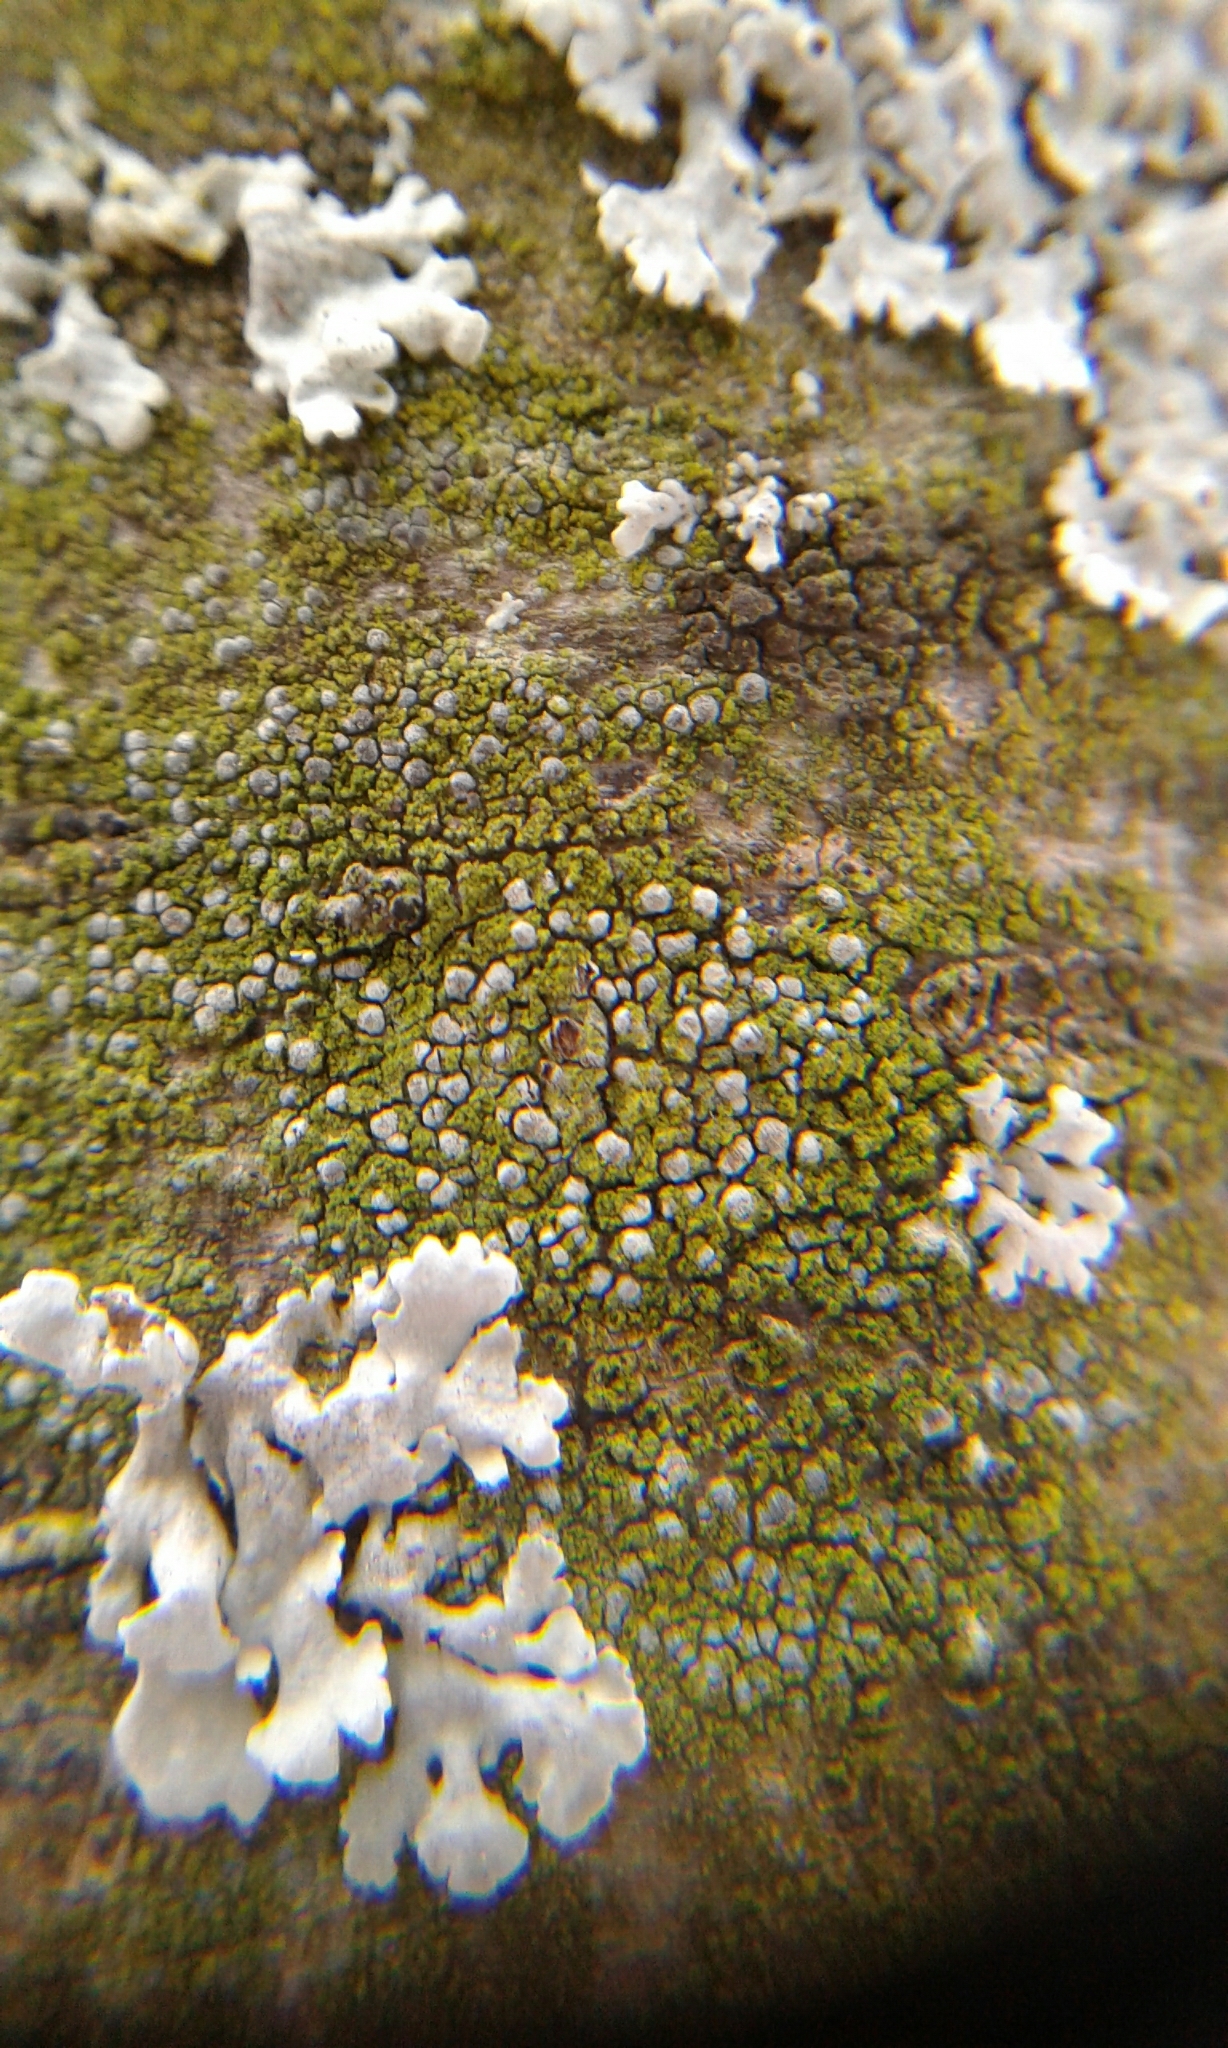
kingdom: Fungi
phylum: Ascomycota
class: Arthoniomycetes
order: Arthoniales
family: Chrysotrichaceae
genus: Chrysothrix
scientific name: Chrysothrix caesia
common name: Frosted comma lichen
